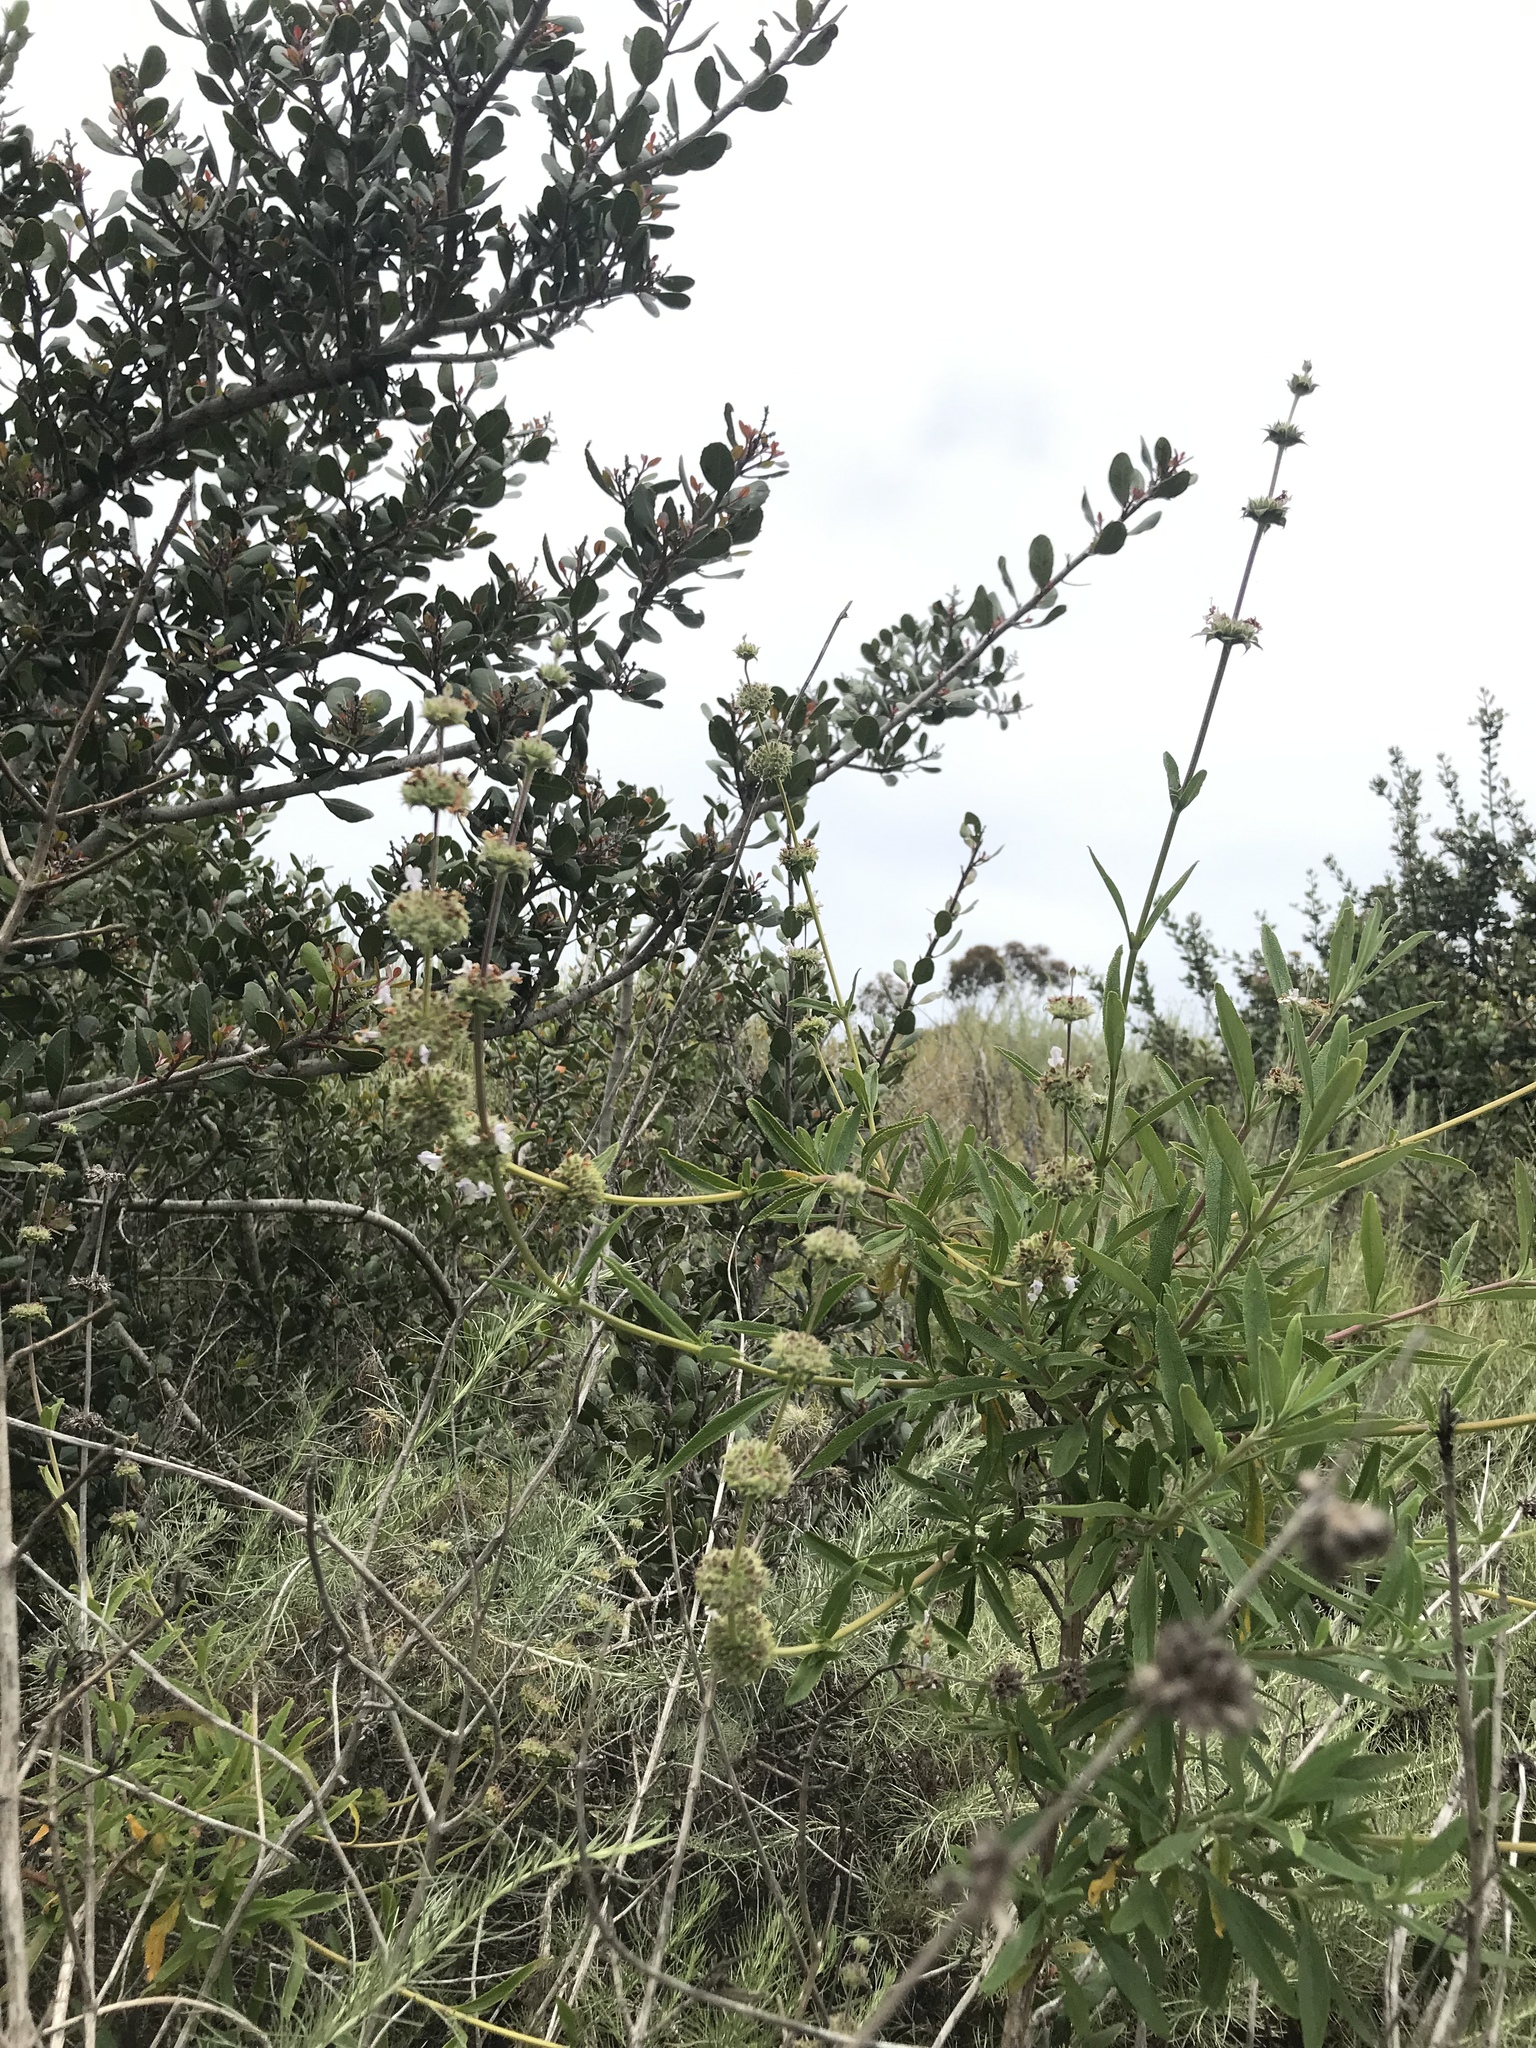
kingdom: Plantae
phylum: Tracheophyta
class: Magnoliopsida
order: Lamiales
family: Lamiaceae
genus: Salvia
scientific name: Salvia mellifera
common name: Black sage
